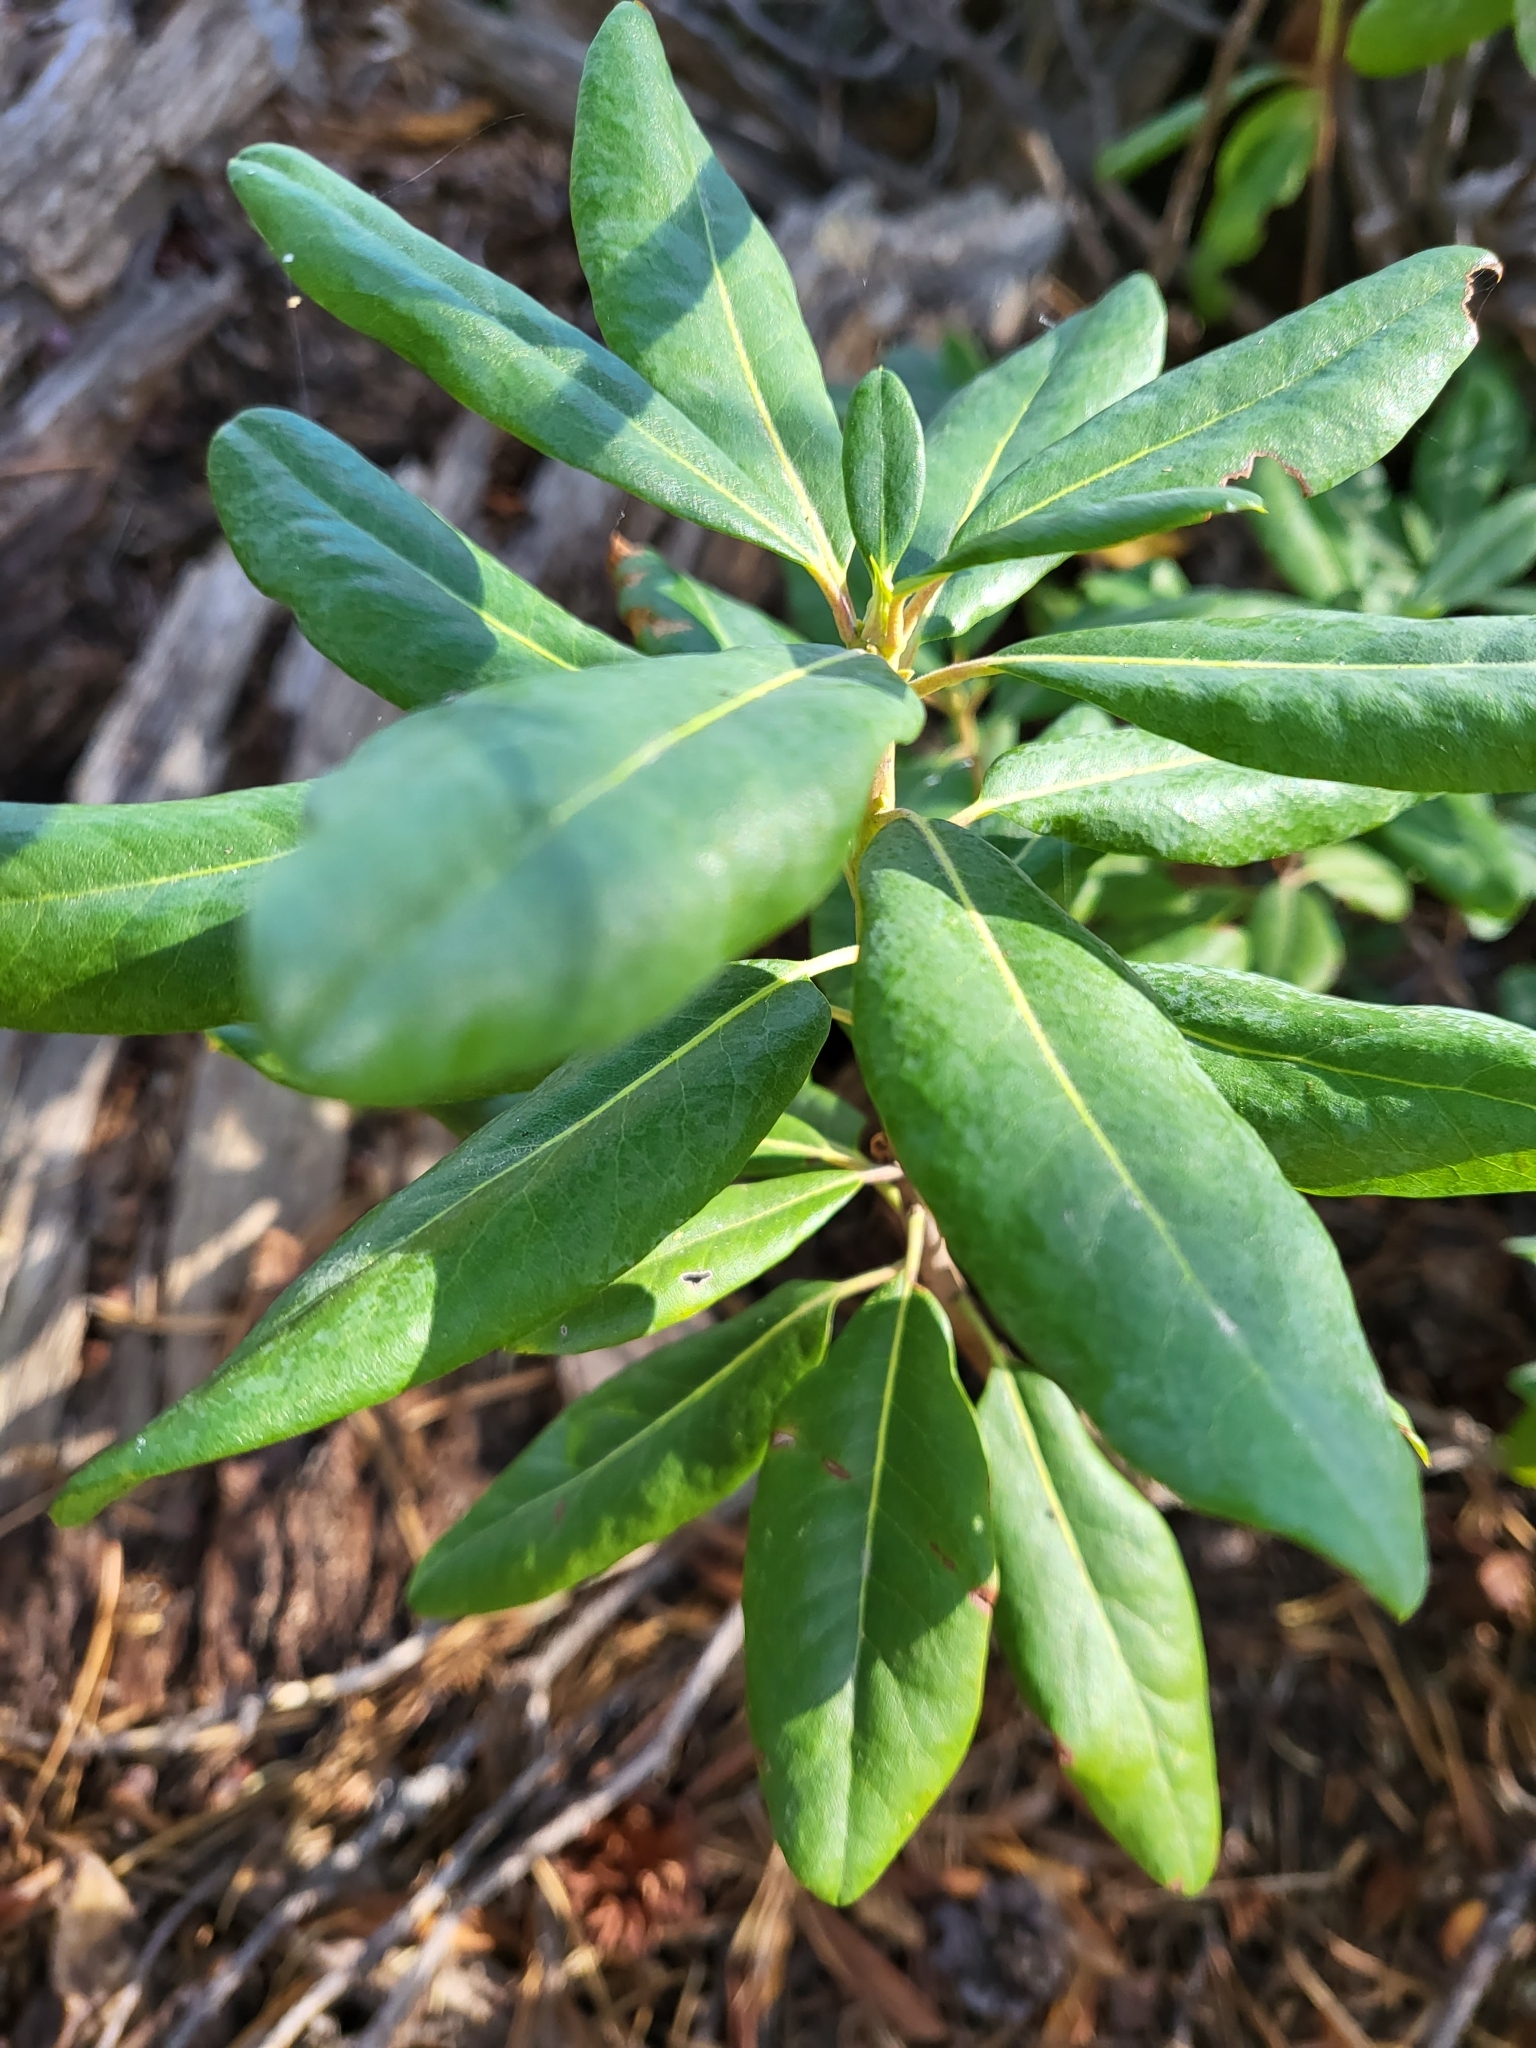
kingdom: Plantae
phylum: Tracheophyta
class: Magnoliopsida
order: Ericales
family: Ericaceae
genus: Rhododendron
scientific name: Rhododendron columbianum
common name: Western labrador tea
